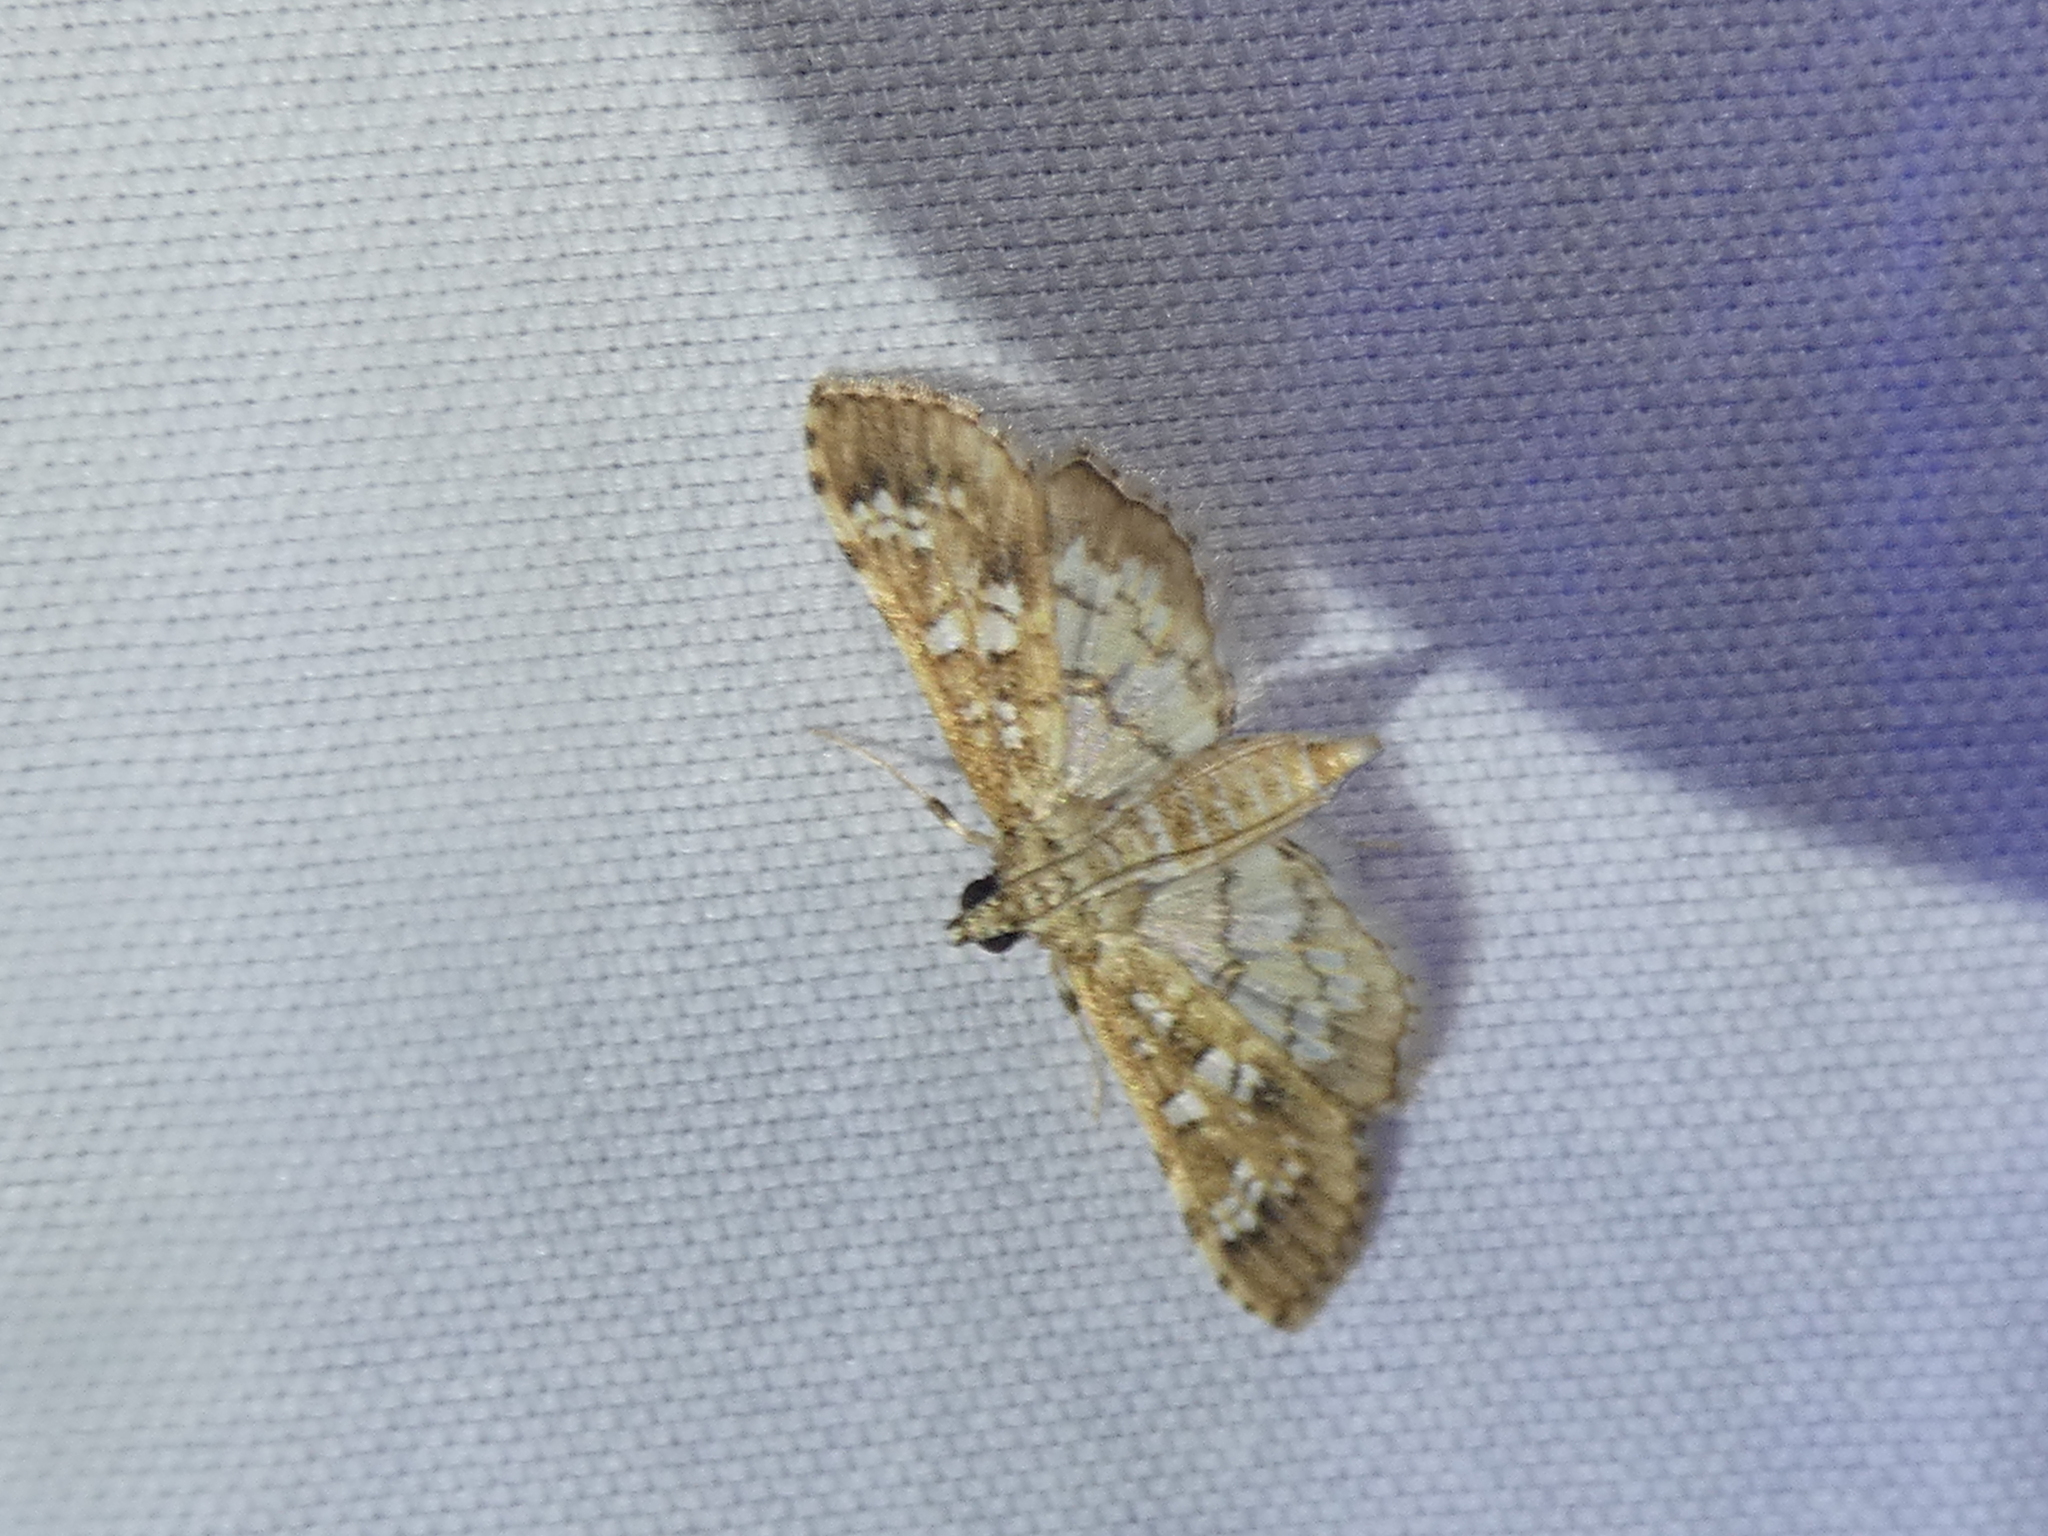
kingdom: Animalia
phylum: Arthropoda
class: Insecta
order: Lepidoptera
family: Crambidae
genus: Samea
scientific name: Samea multiplicalis
